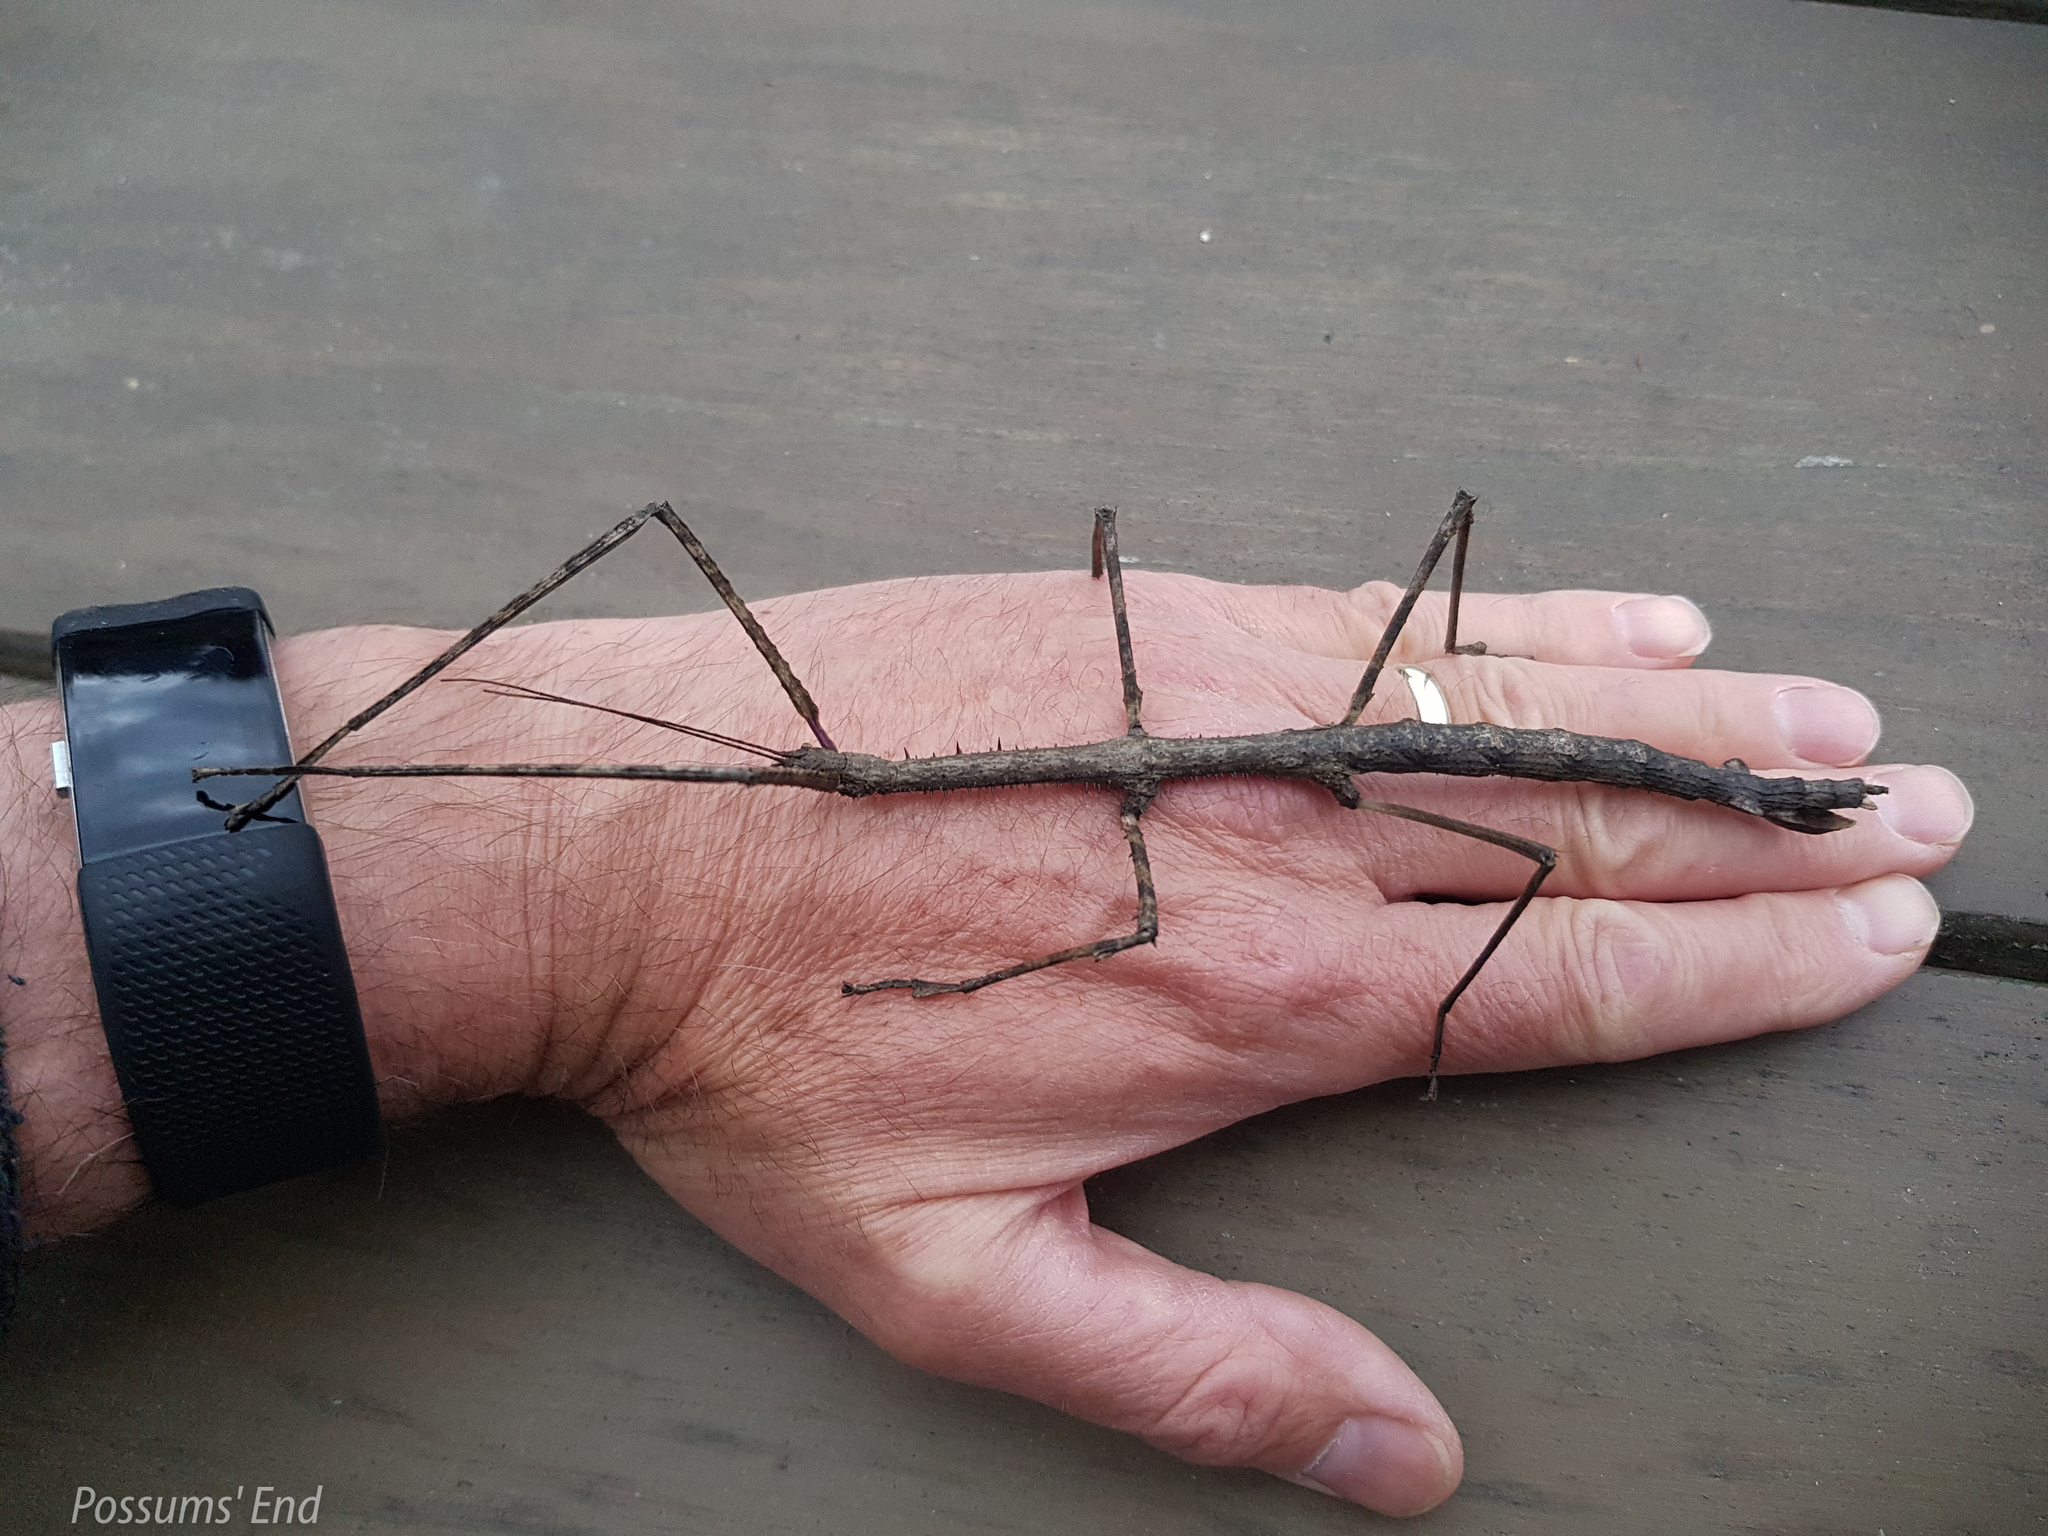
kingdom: Animalia
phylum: Arthropoda
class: Insecta
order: Phasmida
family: Phasmatidae
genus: Argosarchus
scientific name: Argosarchus horridus
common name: Bristly stick insect
